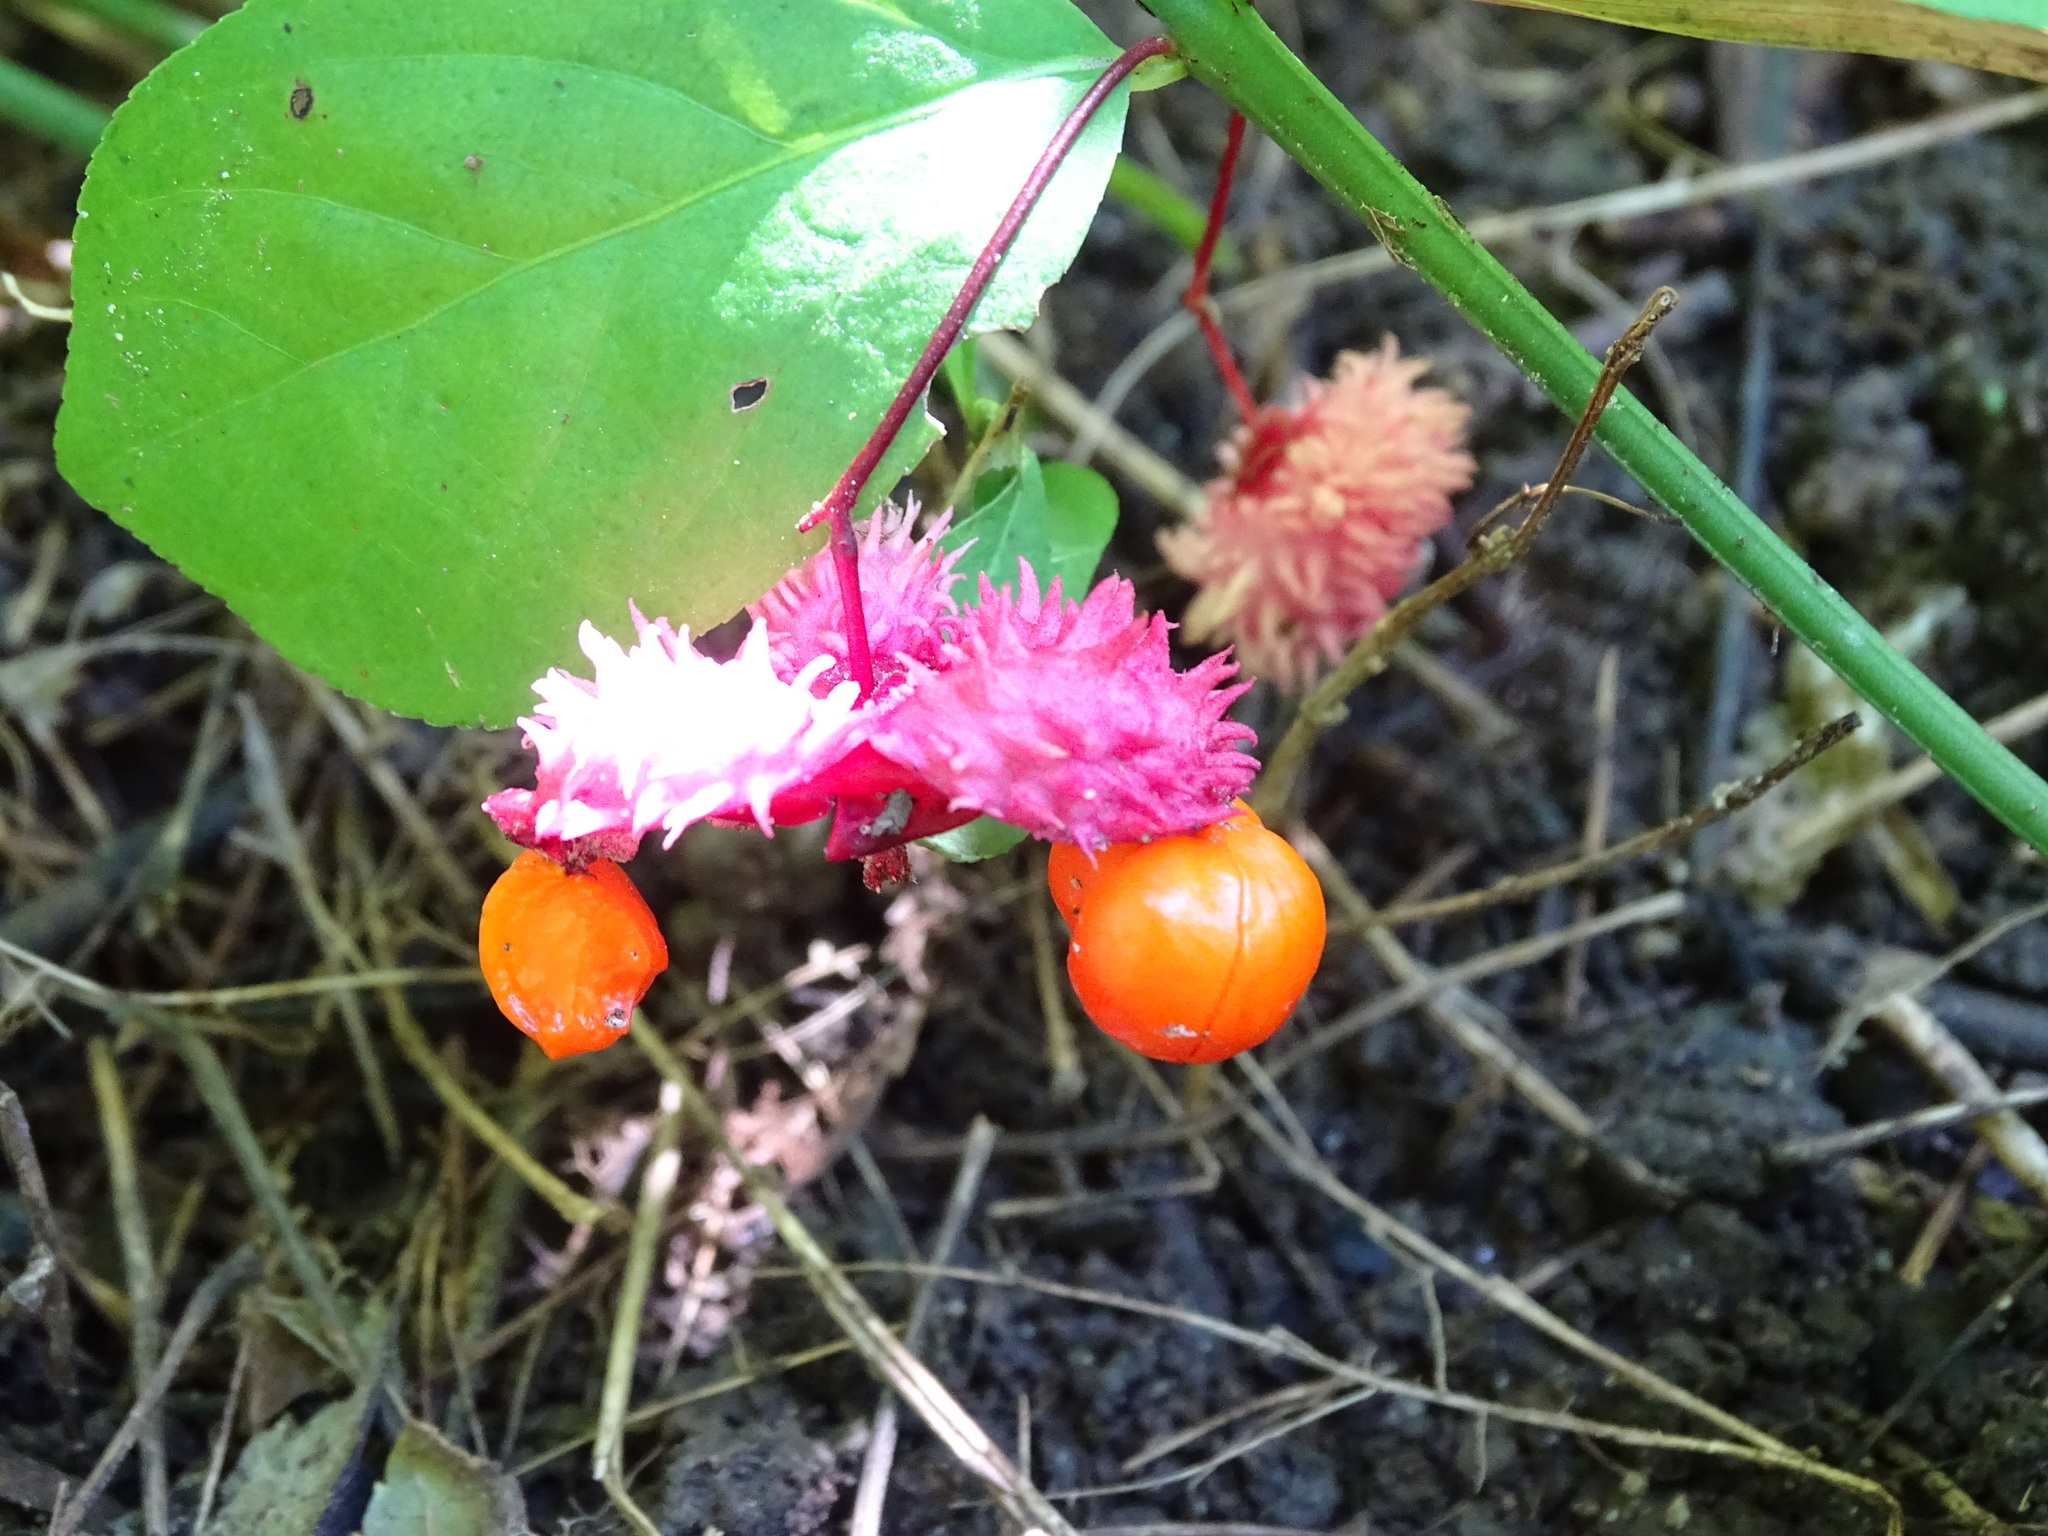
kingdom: Plantae
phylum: Tracheophyta
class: Magnoliopsida
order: Celastrales
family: Celastraceae
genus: Euonymus
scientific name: Euonymus obovatus
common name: Running strawberry-bush
